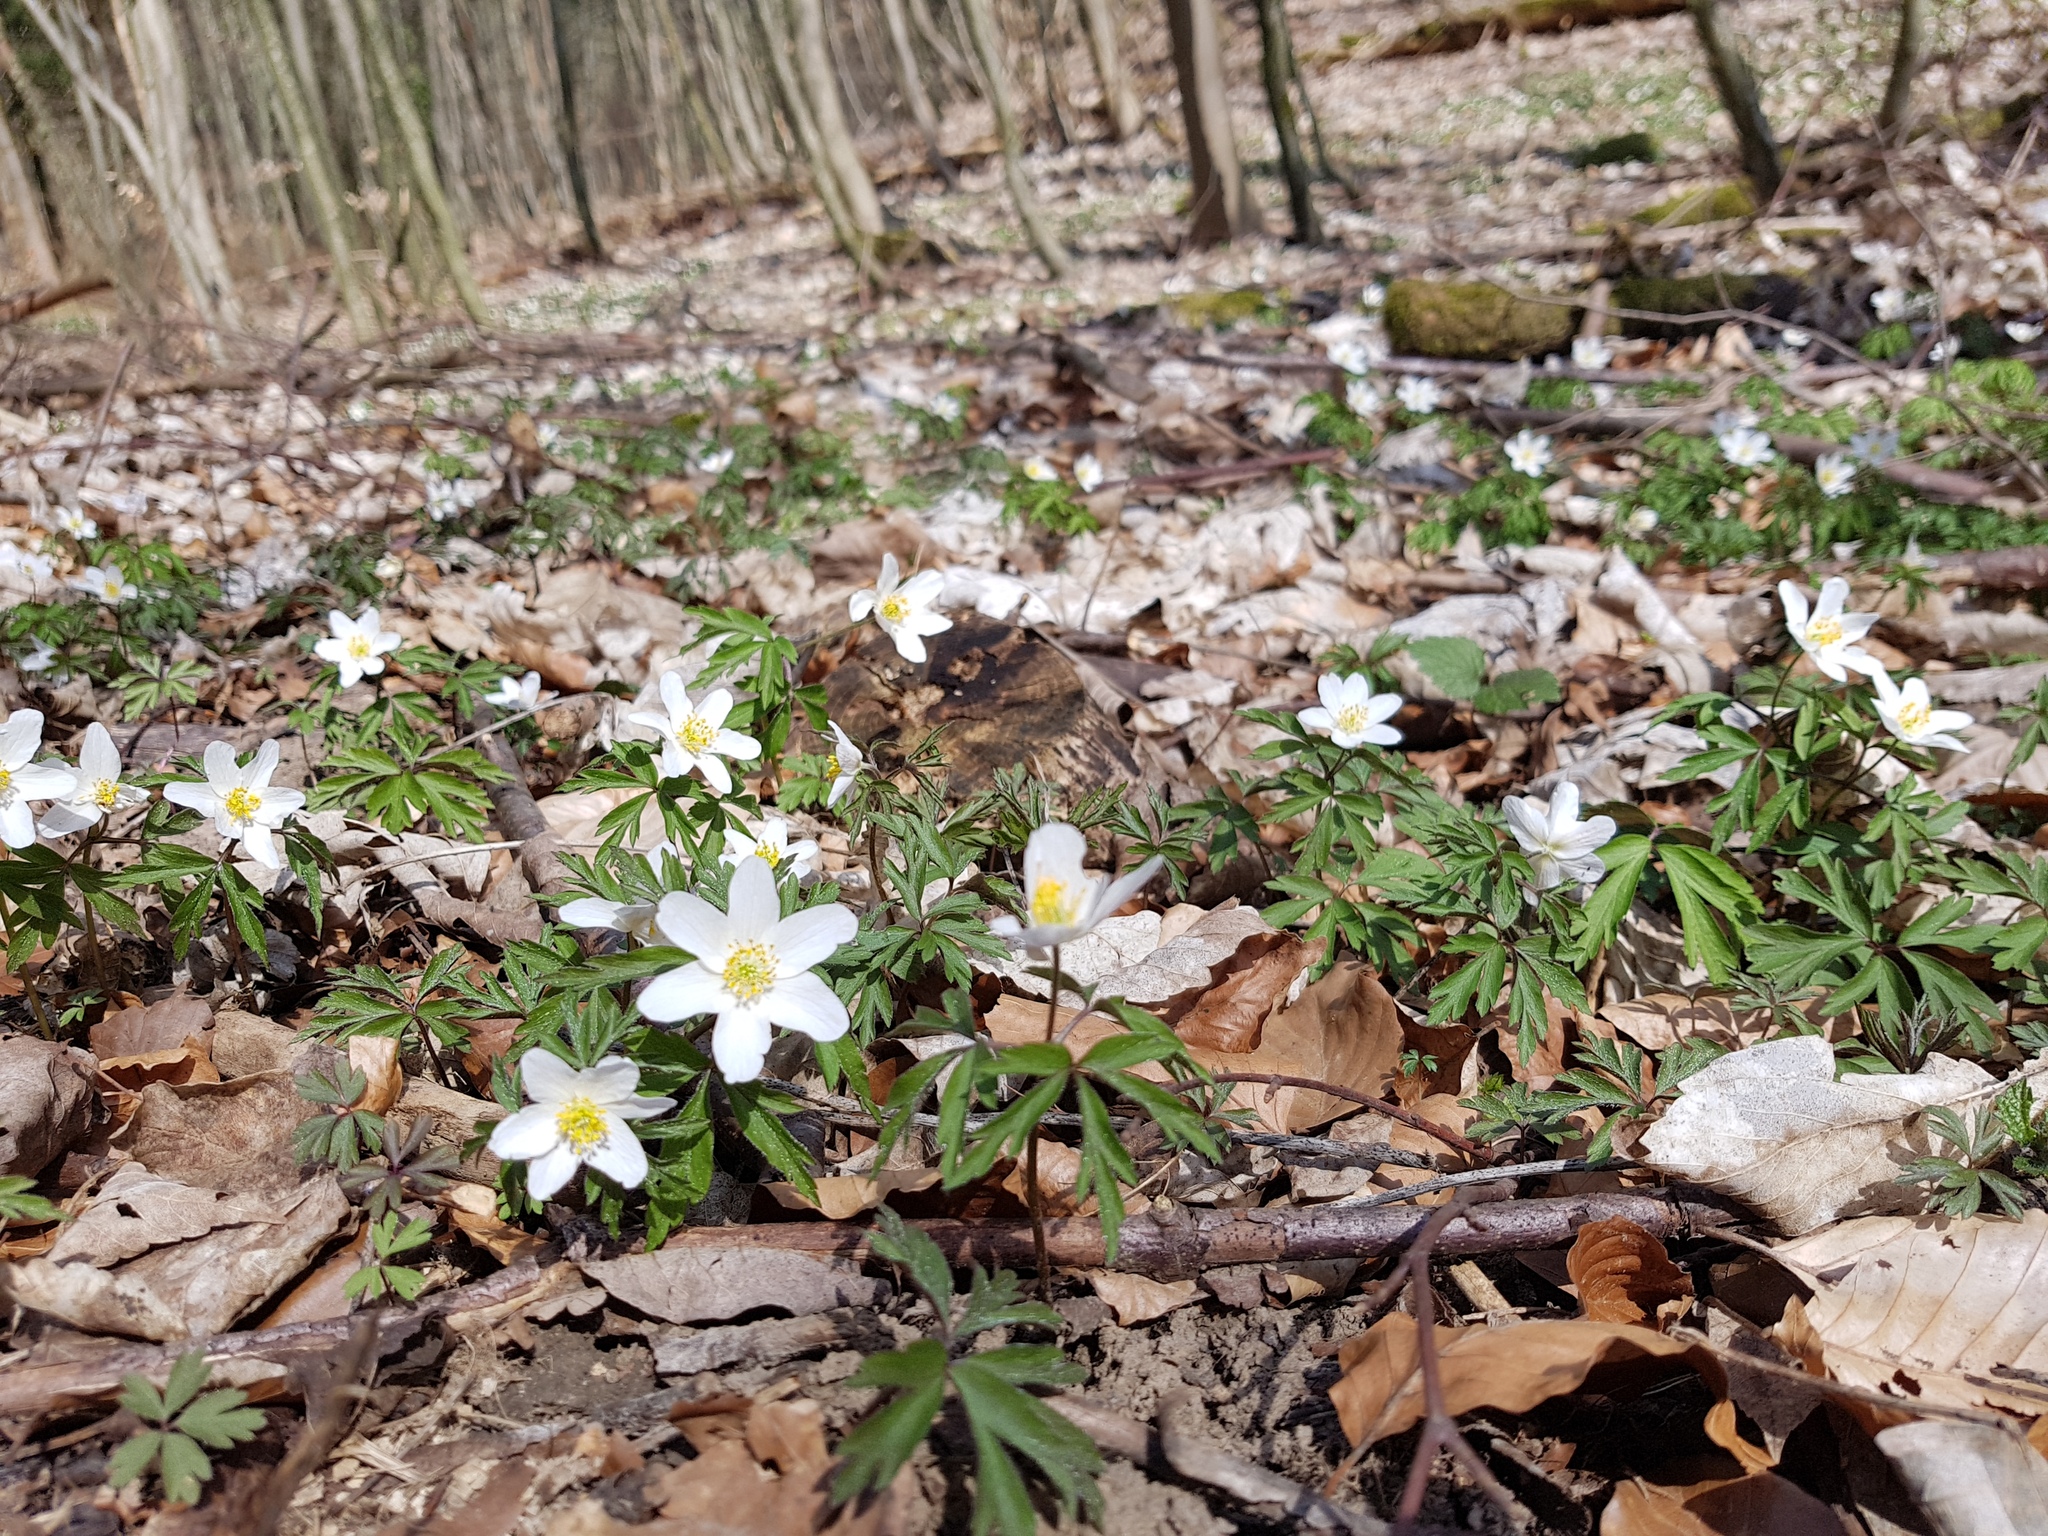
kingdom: Plantae
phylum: Tracheophyta
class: Magnoliopsida
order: Ranunculales
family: Ranunculaceae
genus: Anemone
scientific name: Anemone nemorosa
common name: Wood anemone
